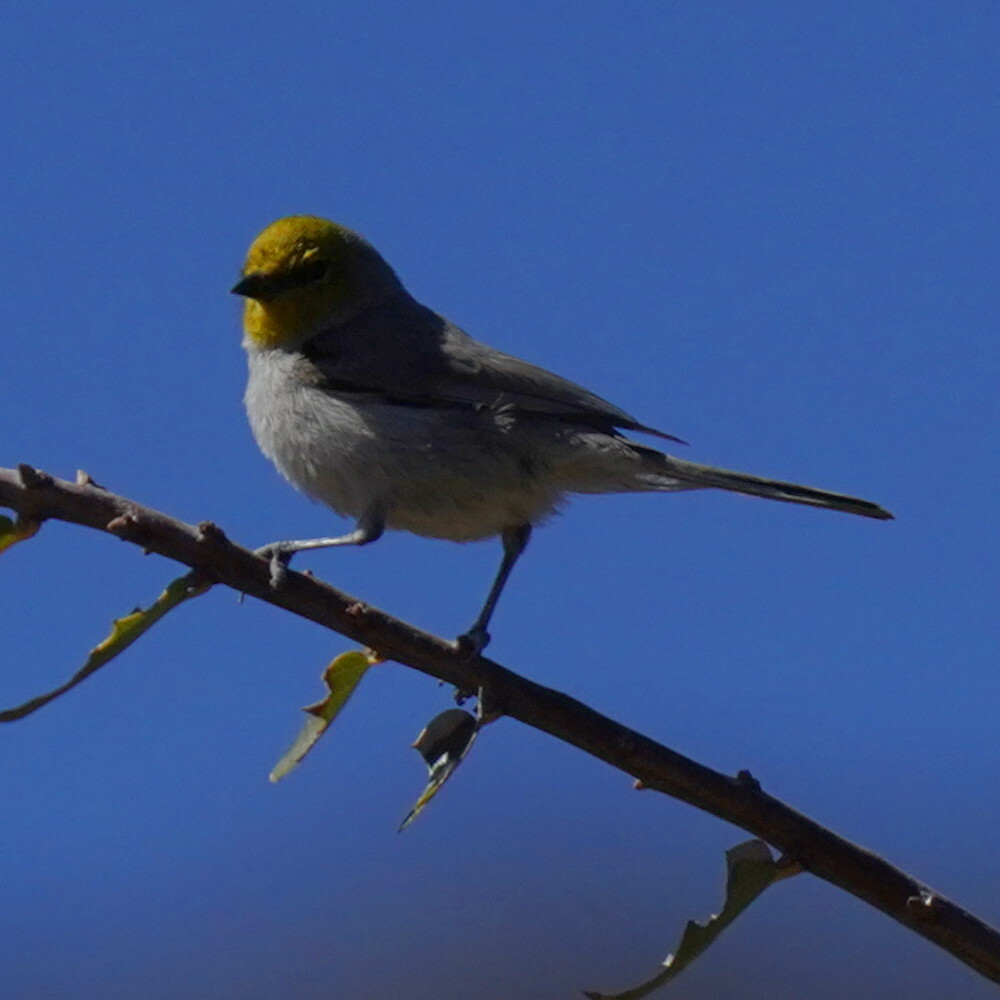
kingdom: Animalia
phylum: Chordata
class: Aves
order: Passeriformes
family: Remizidae
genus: Auriparus
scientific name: Auriparus flaviceps
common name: Verdin
